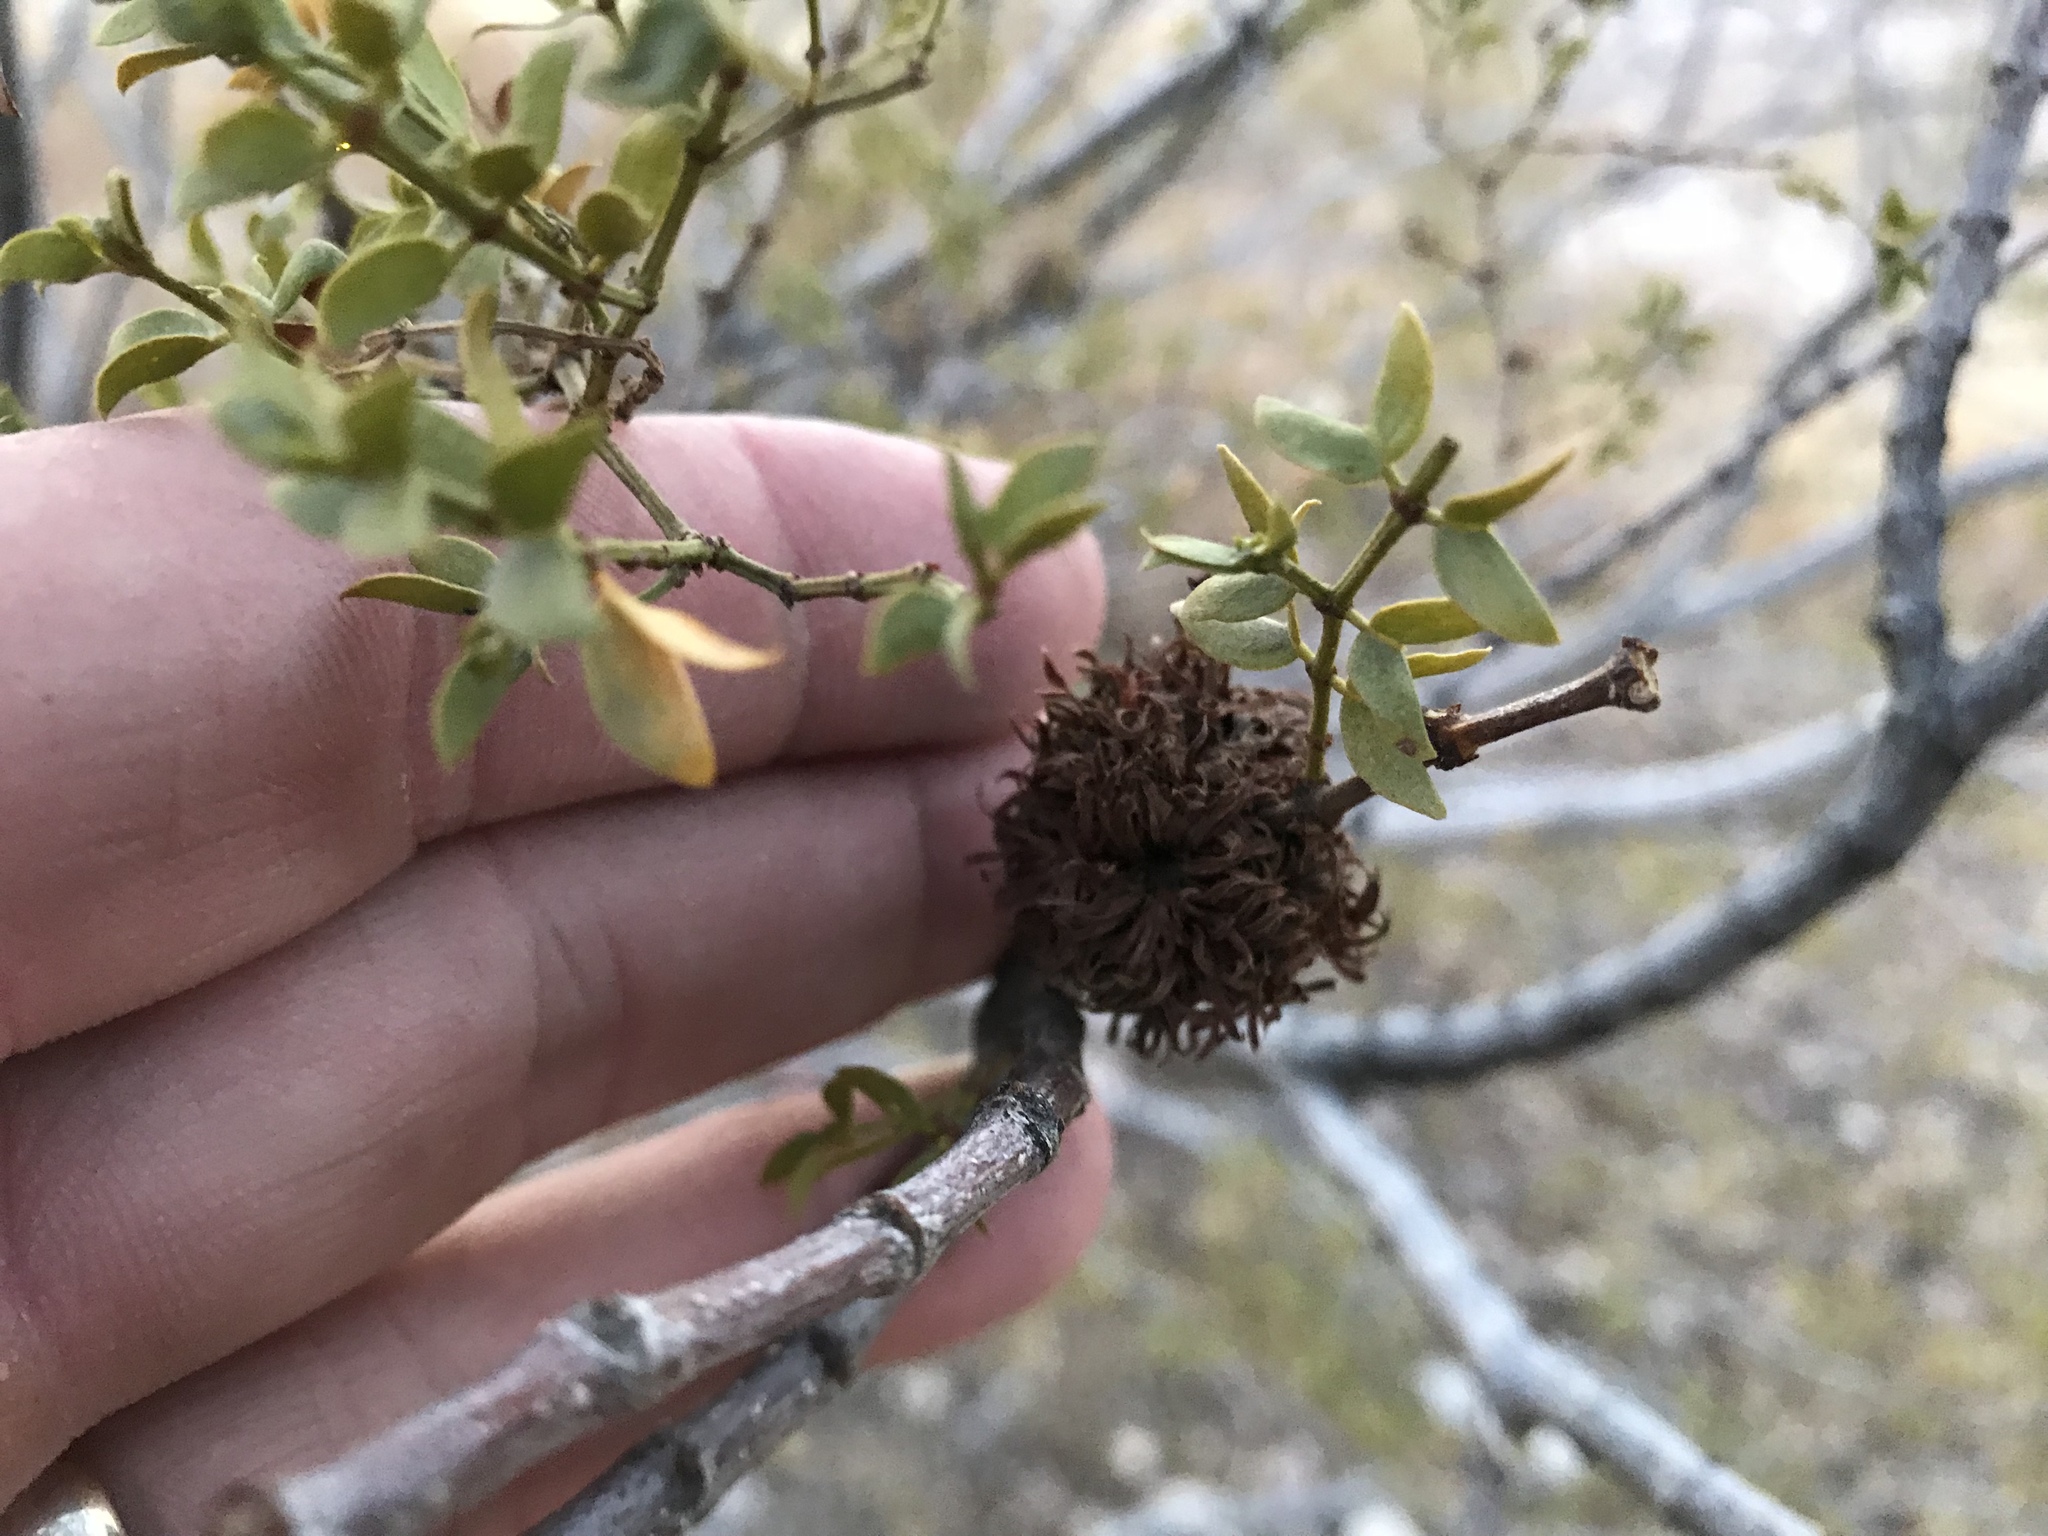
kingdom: Animalia
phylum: Arthropoda
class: Insecta
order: Diptera
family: Cecidomyiidae
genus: Asphondylia
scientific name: Asphondylia auripila
